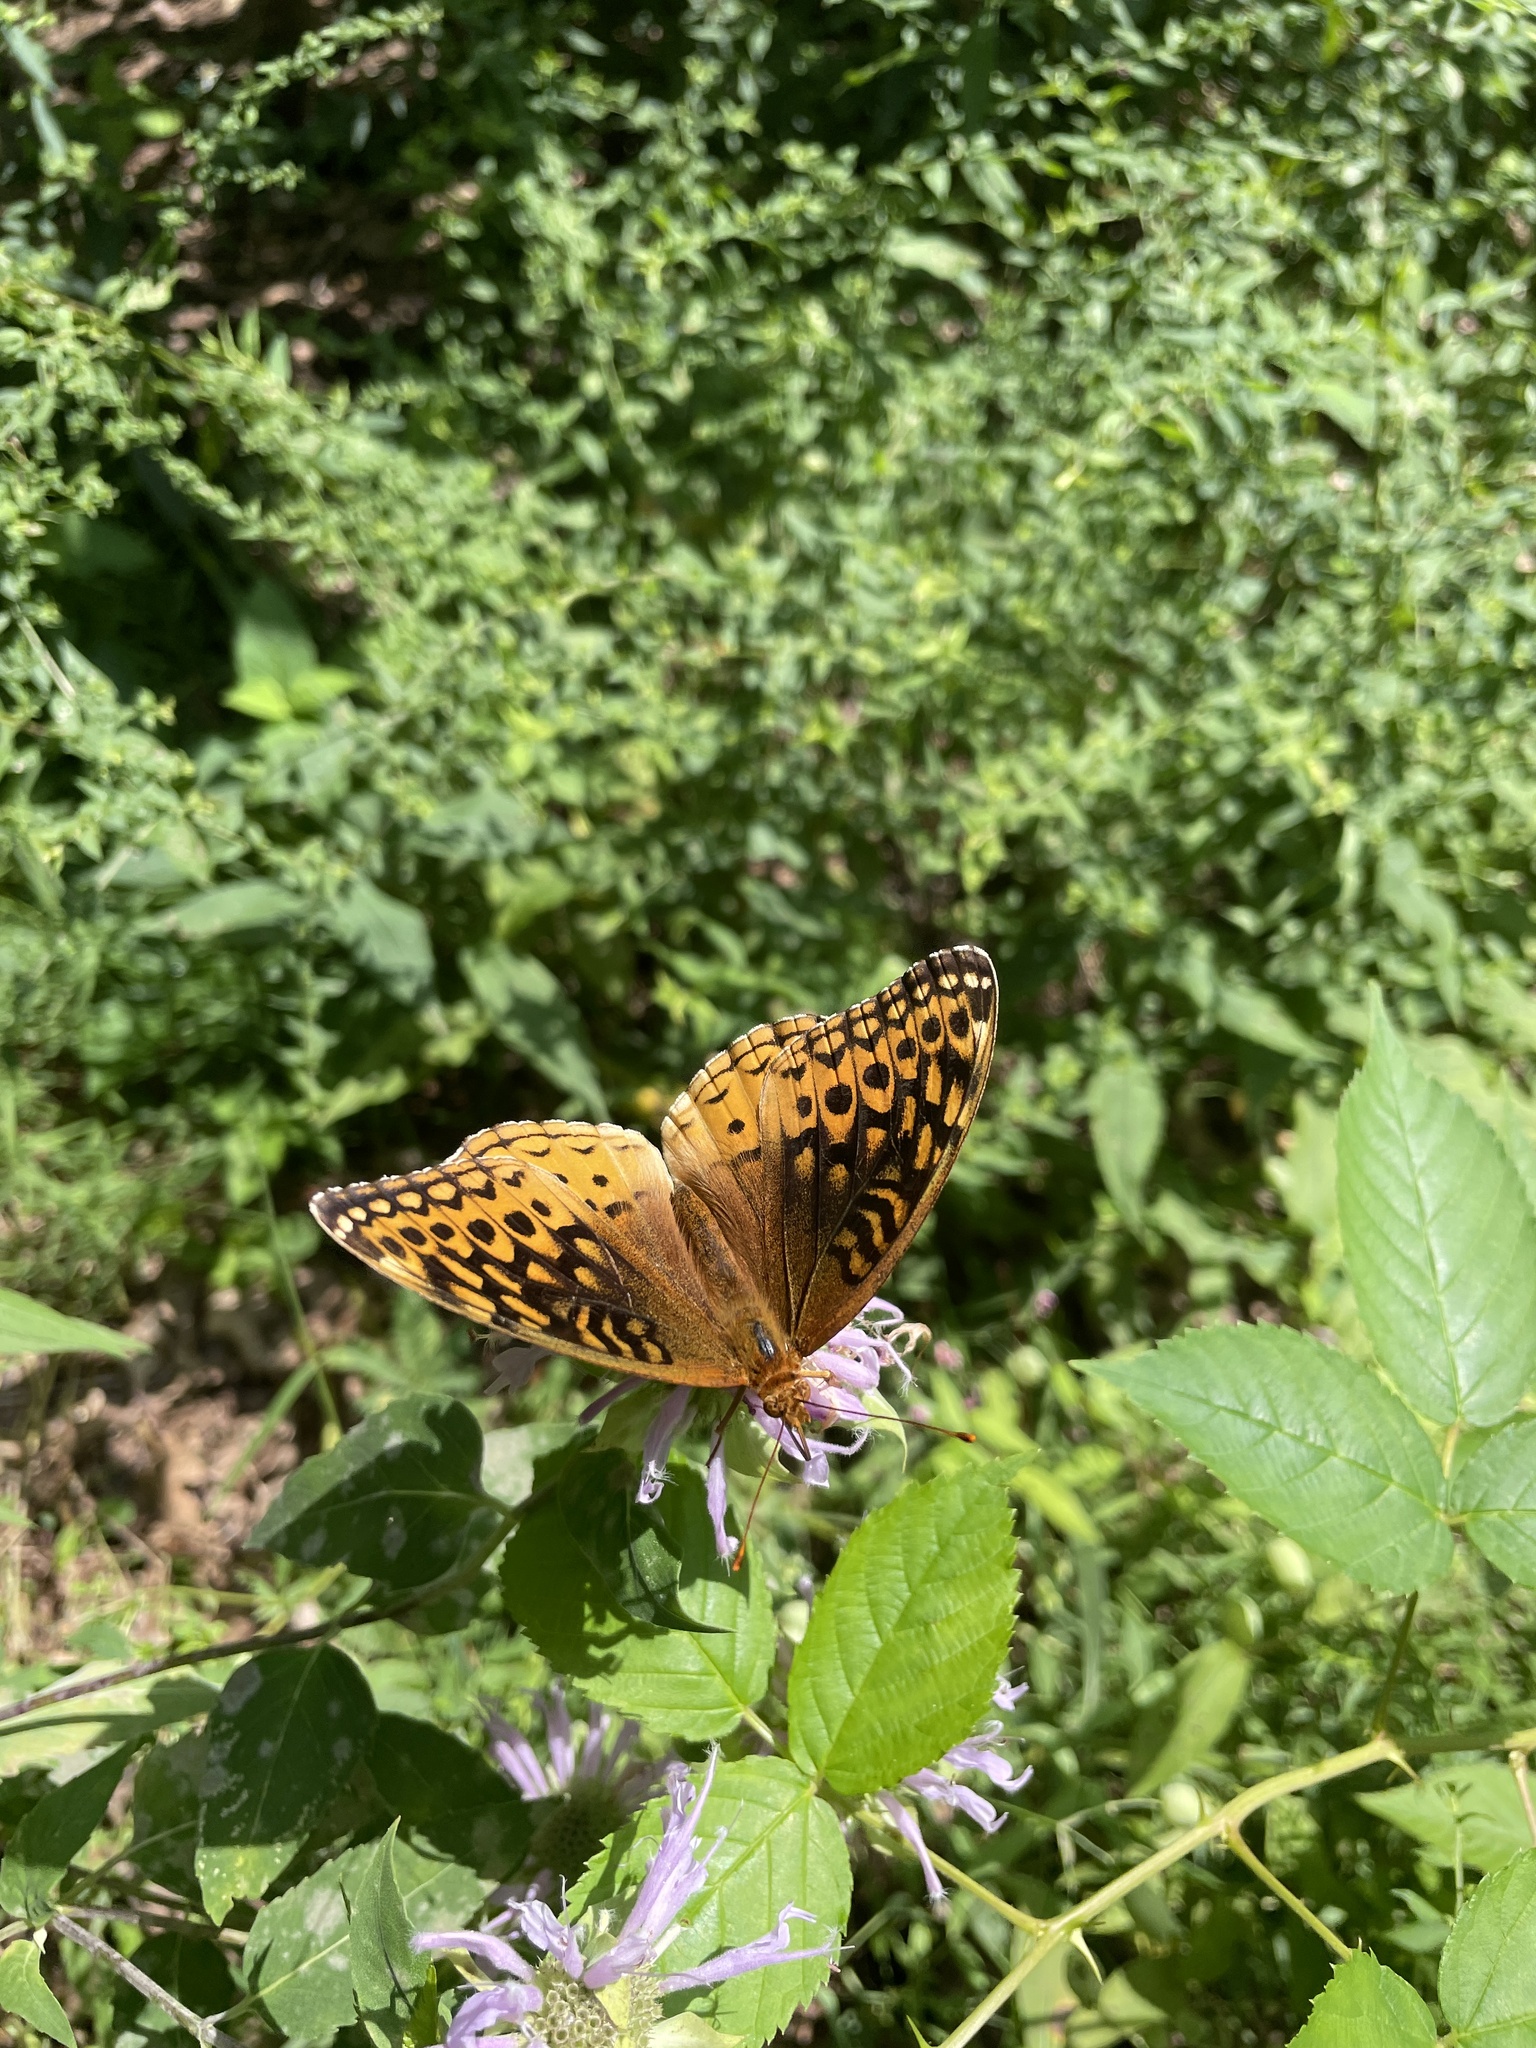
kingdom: Animalia
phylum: Arthropoda
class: Insecta
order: Lepidoptera
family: Nymphalidae
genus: Speyeria
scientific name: Speyeria cybele
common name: Great spangled fritillary
